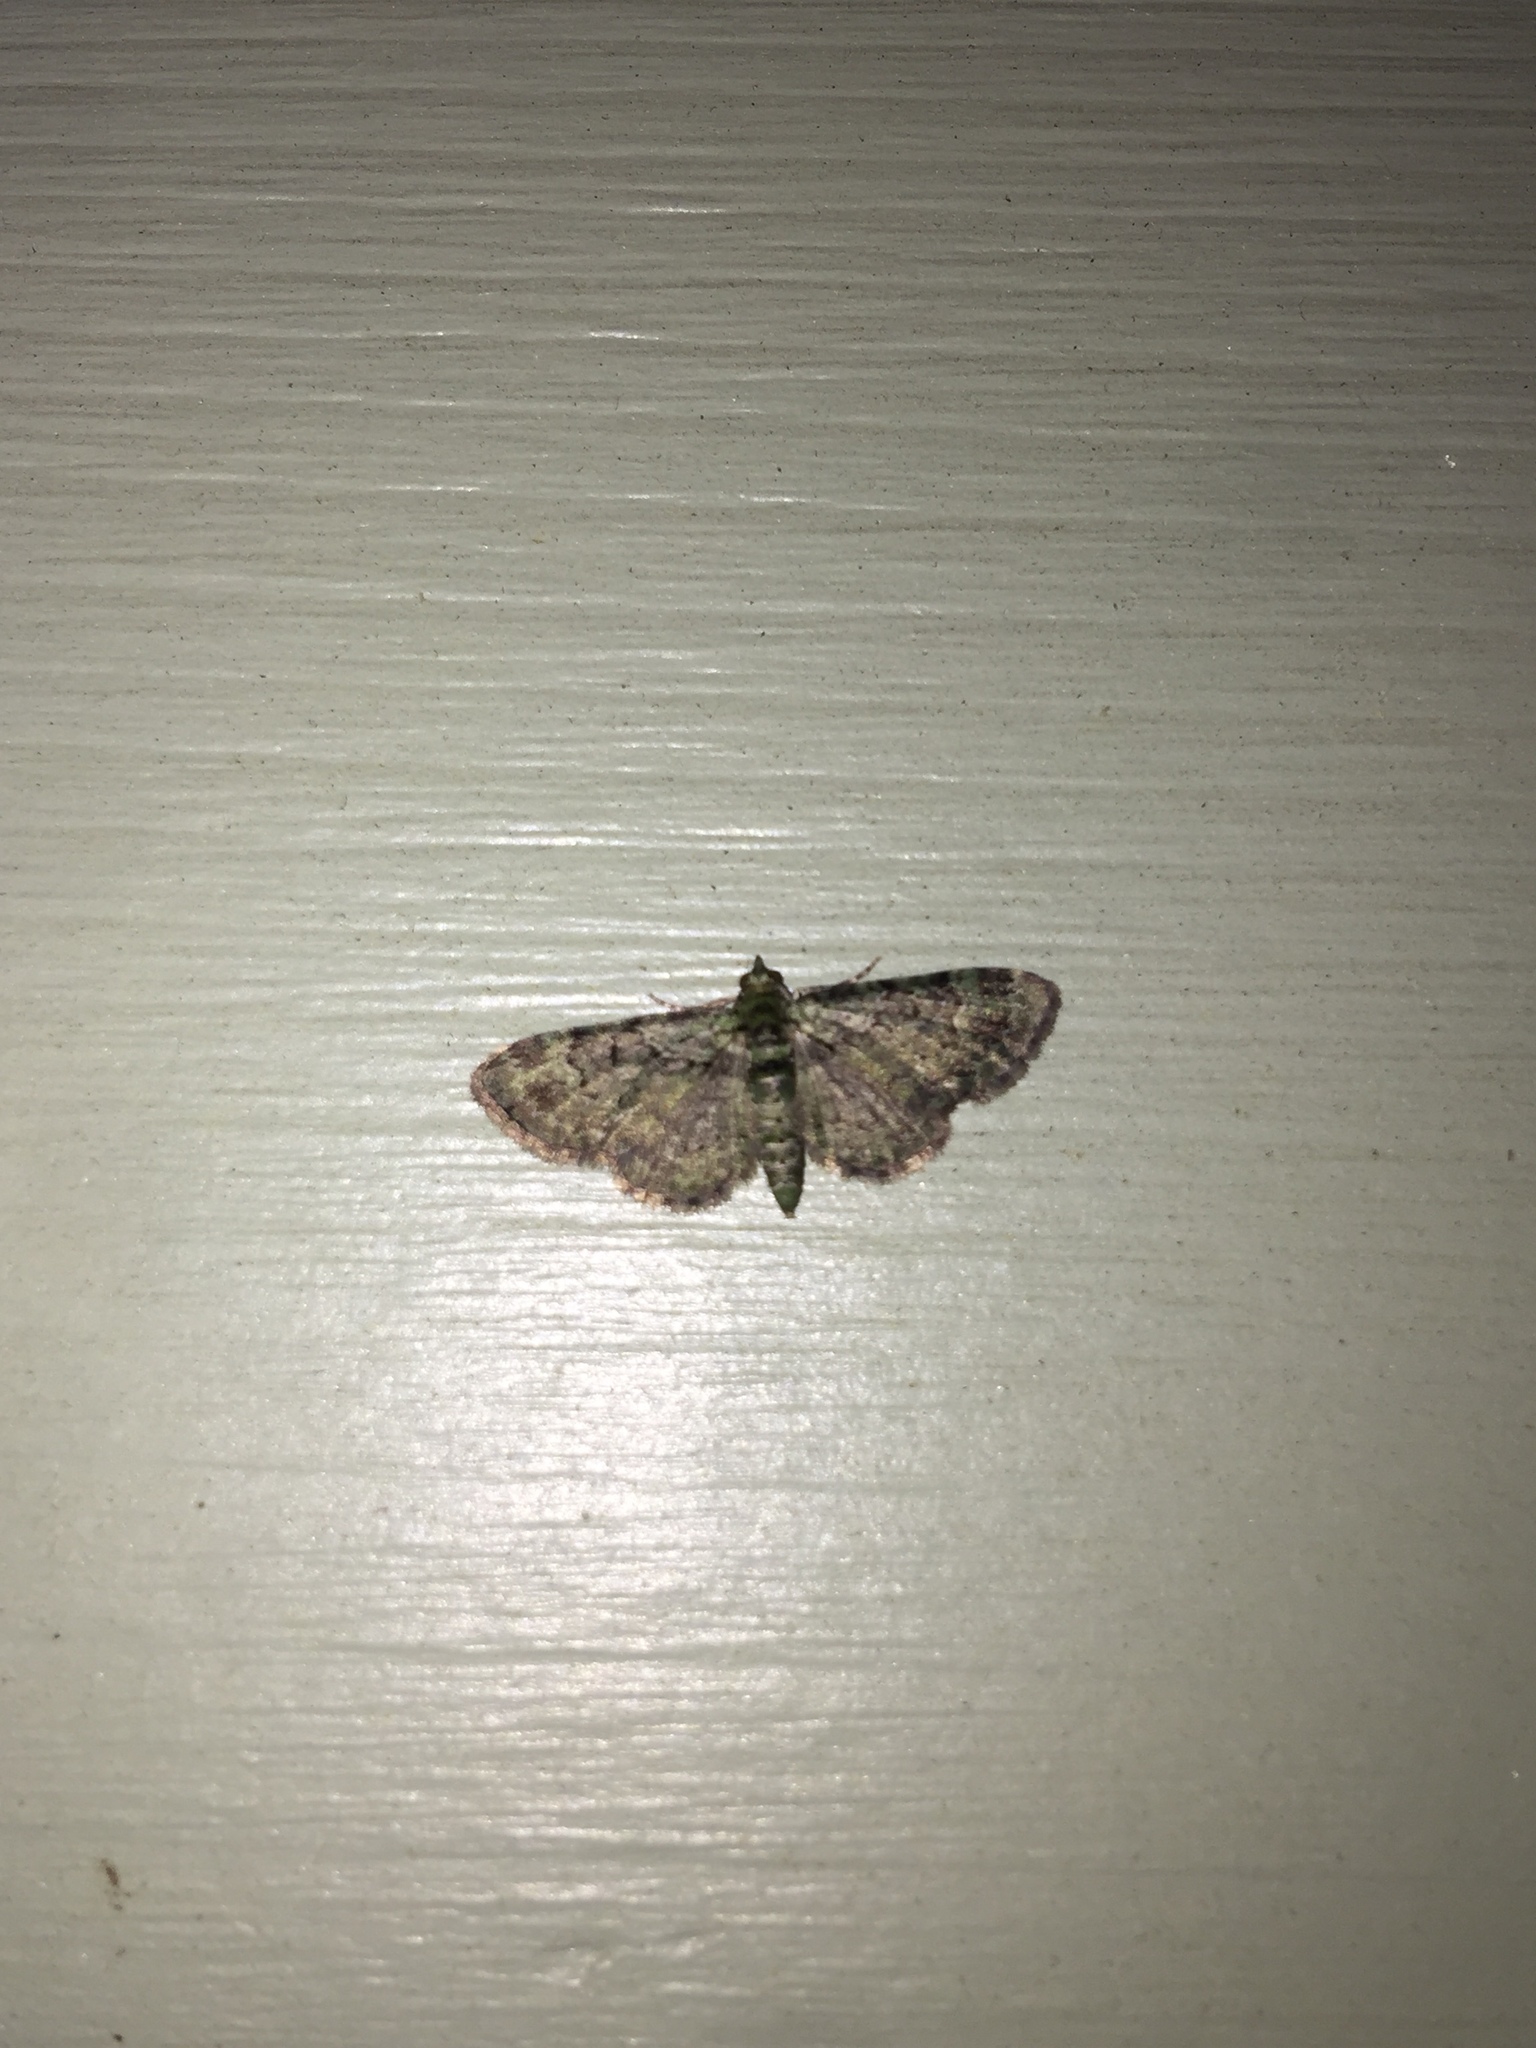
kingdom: Animalia
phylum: Arthropoda
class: Insecta
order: Lepidoptera
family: Geometridae
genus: Pasiphila
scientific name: Pasiphila rectangulata
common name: Green pug
